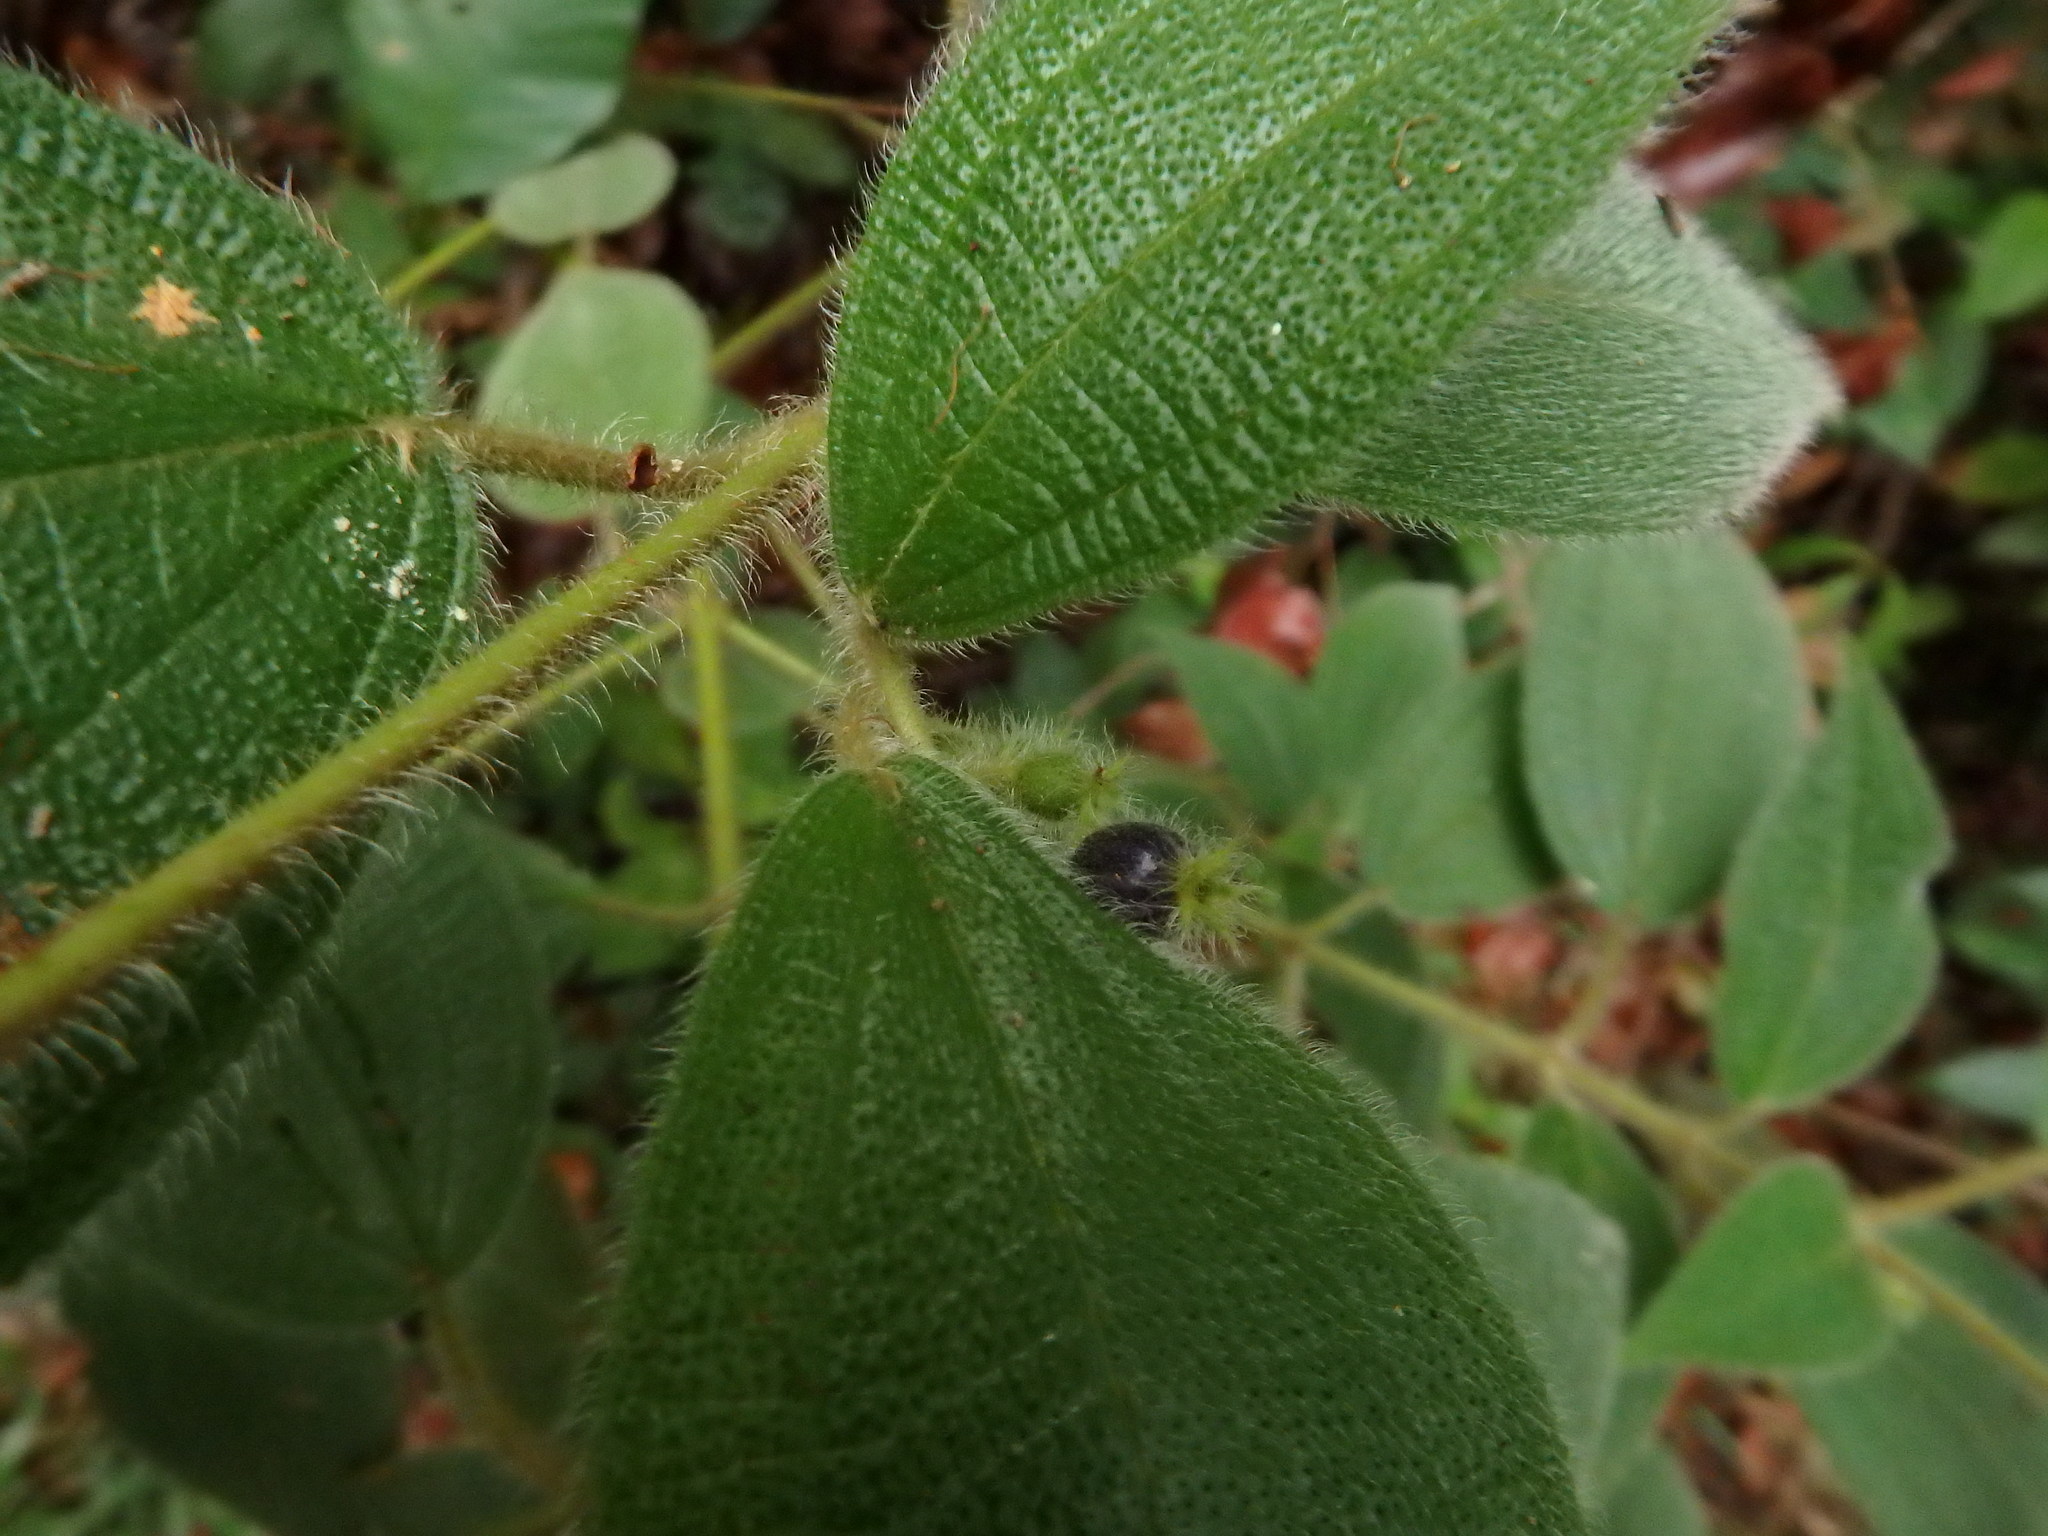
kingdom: Plantae
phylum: Tracheophyta
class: Magnoliopsida
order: Myrtales
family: Melastomataceae
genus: Miconia
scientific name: Miconia dependens
